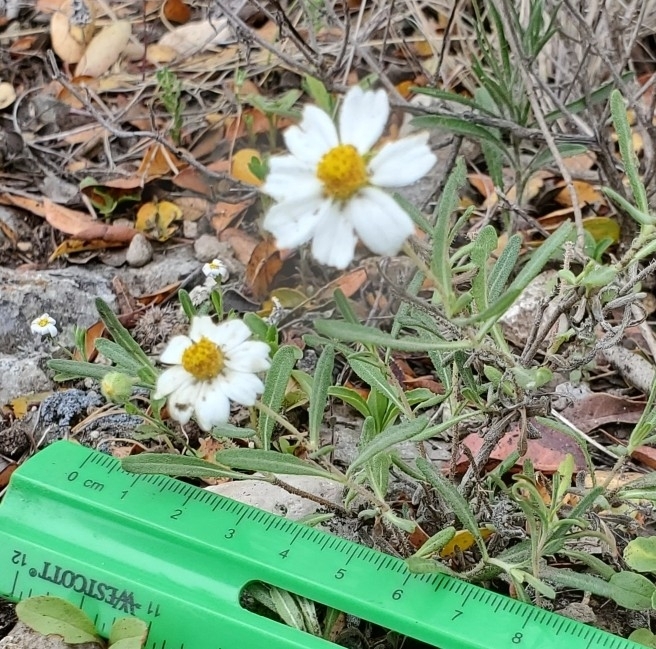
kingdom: Plantae
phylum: Tracheophyta
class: Magnoliopsida
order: Asterales
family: Asteraceae
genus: Melampodium
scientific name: Melampodium leucanthum
